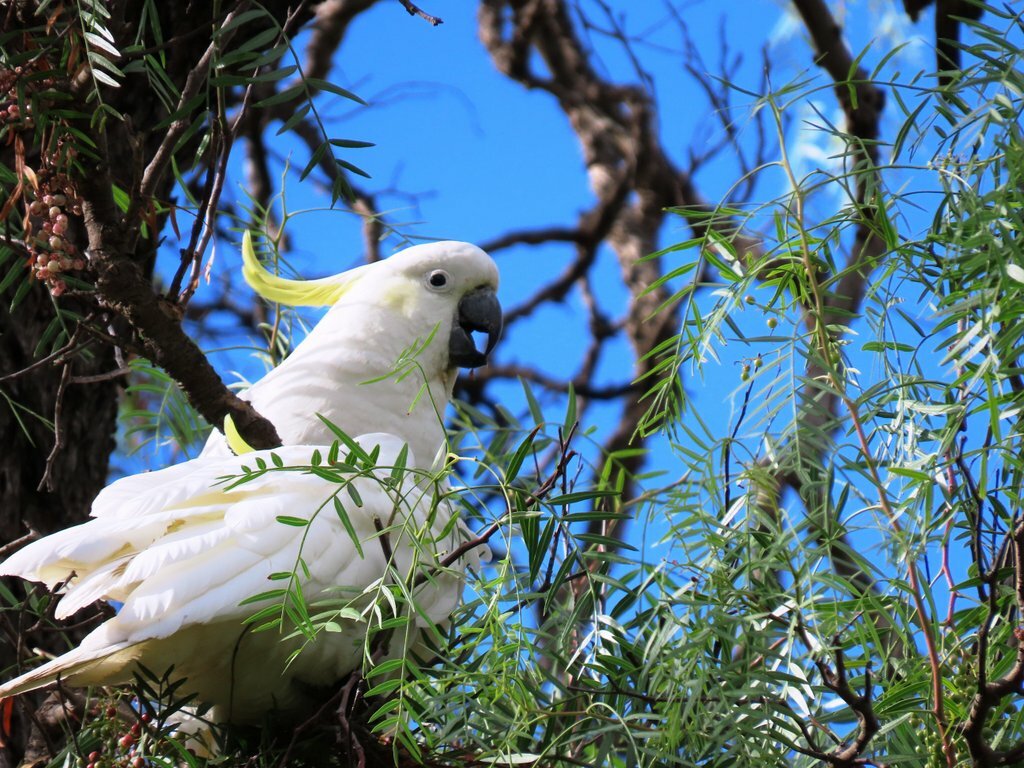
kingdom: Animalia
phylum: Chordata
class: Aves
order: Psittaciformes
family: Psittacidae
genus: Cacatua
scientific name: Cacatua galerita
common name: Sulphur-crested cockatoo
